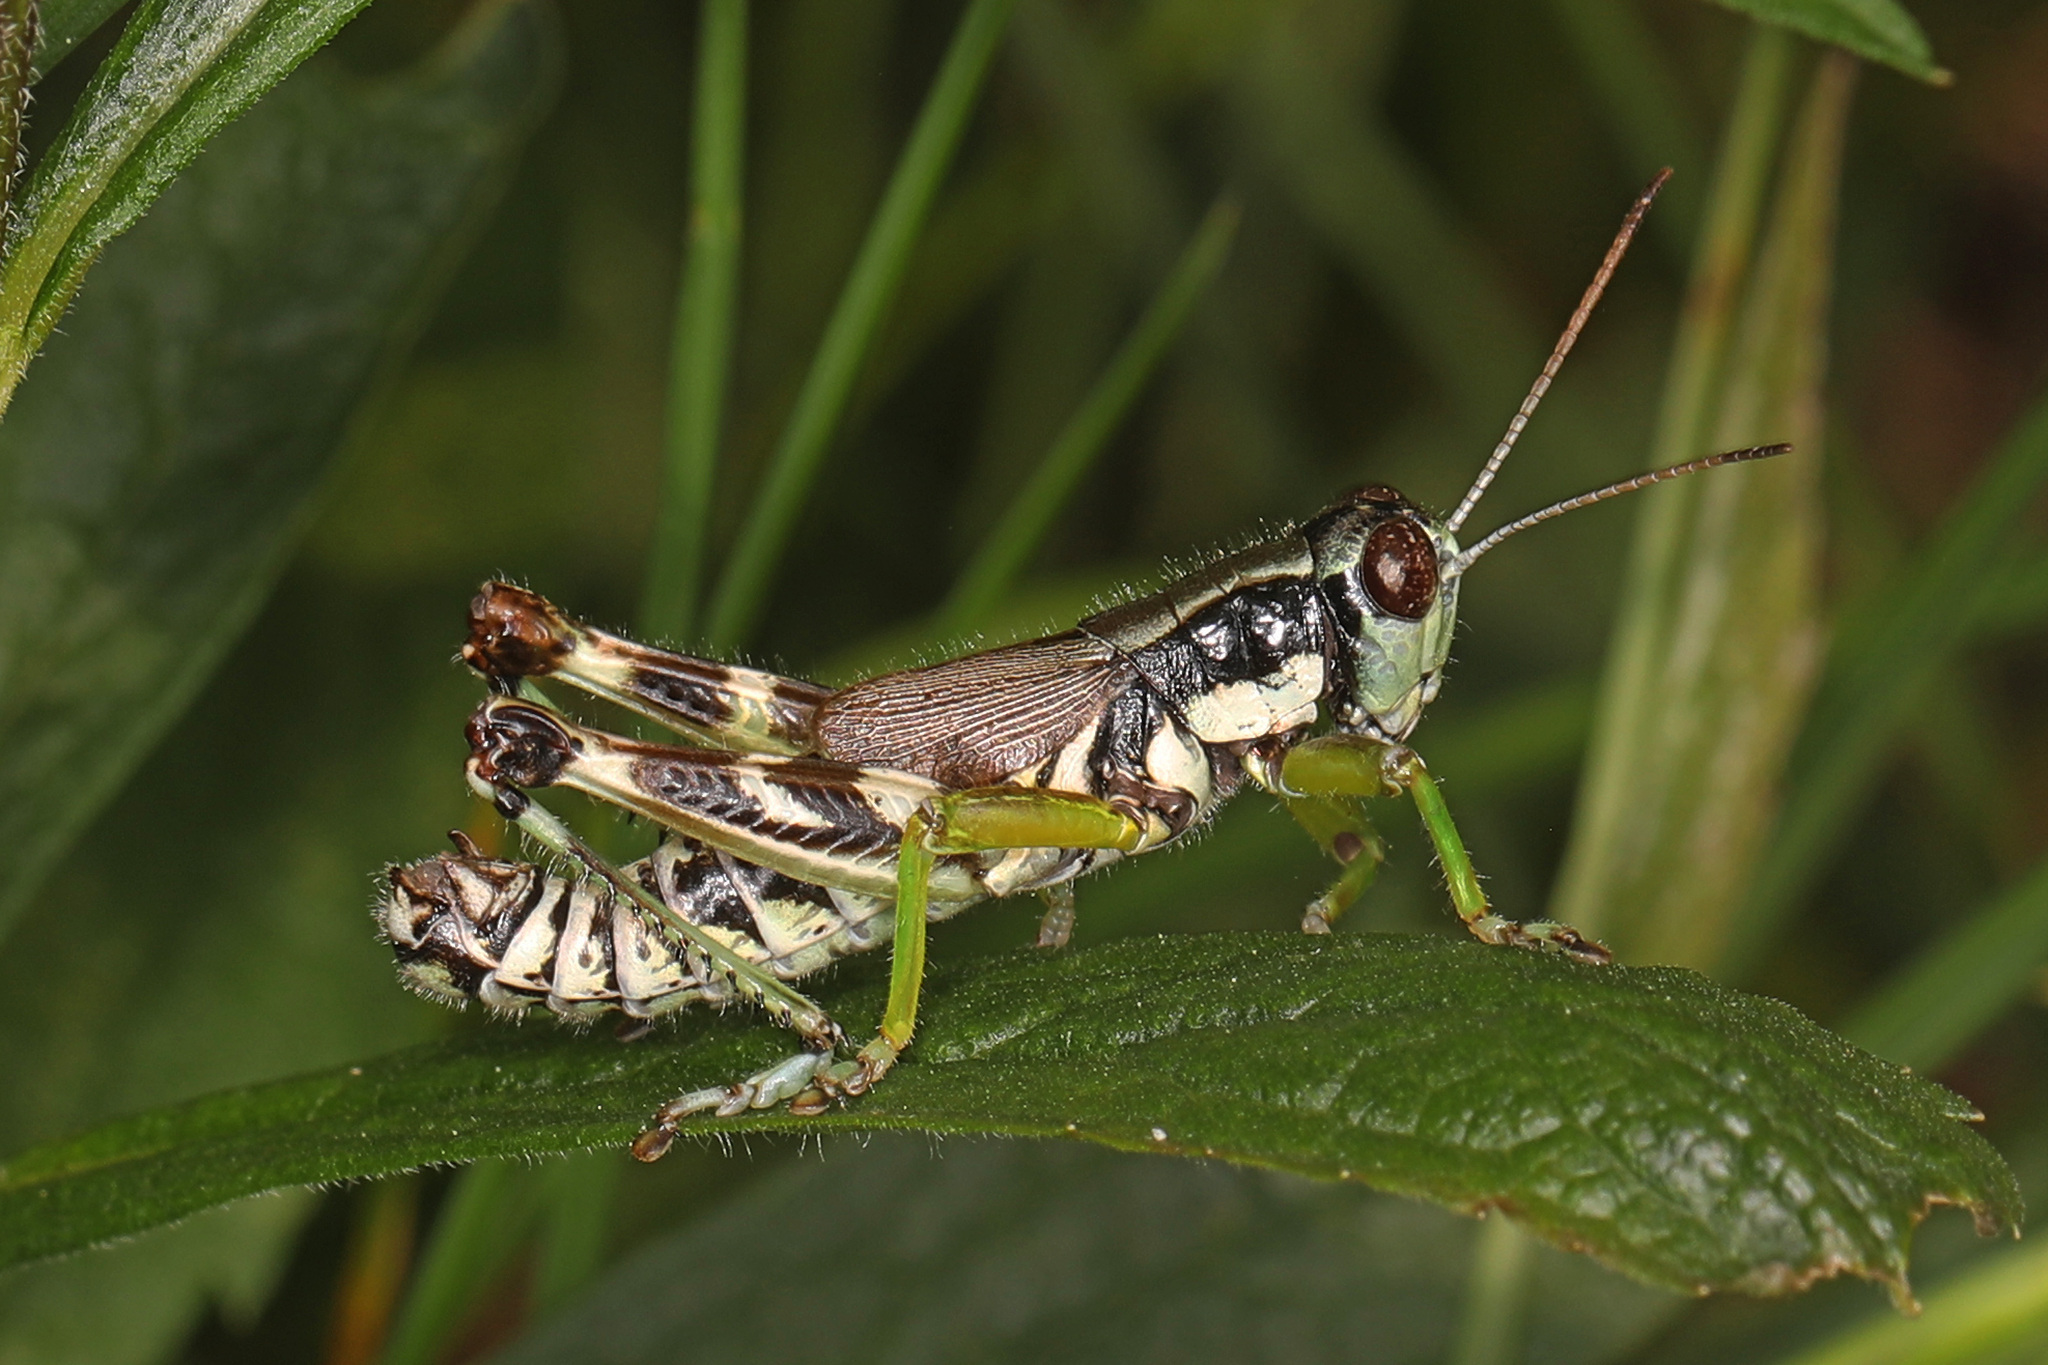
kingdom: Animalia
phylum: Arthropoda
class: Insecta
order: Orthoptera
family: Acrididae
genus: Melanoplus
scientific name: Melanoplus viridipes
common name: Green-legged locust
